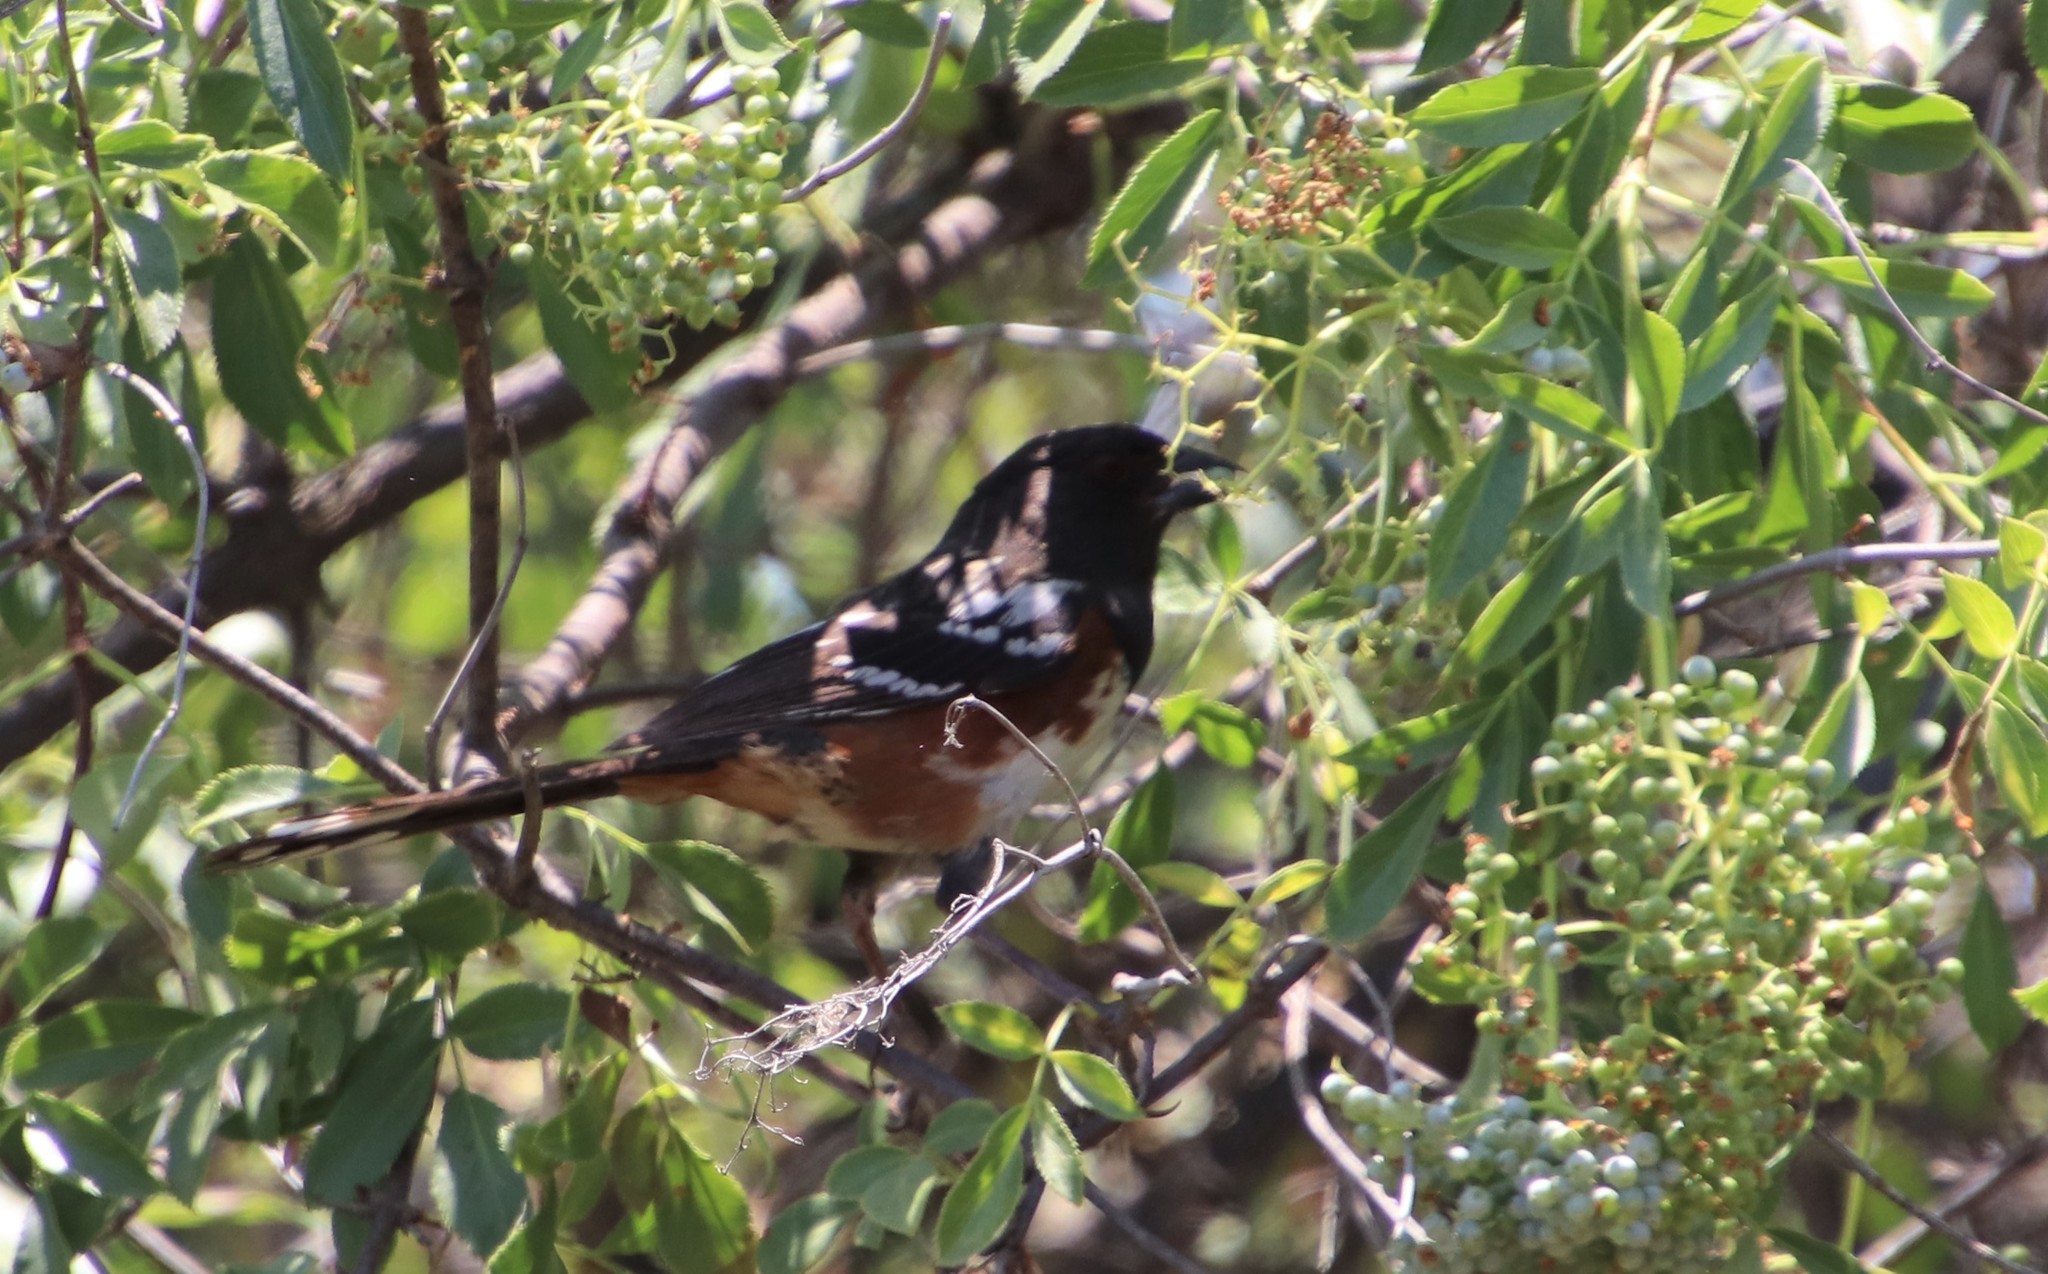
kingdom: Animalia
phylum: Chordata
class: Aves
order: Passeriformes
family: Passerellidae
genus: Pipilo
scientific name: Pipilo maculatus
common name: Spotted towhee
